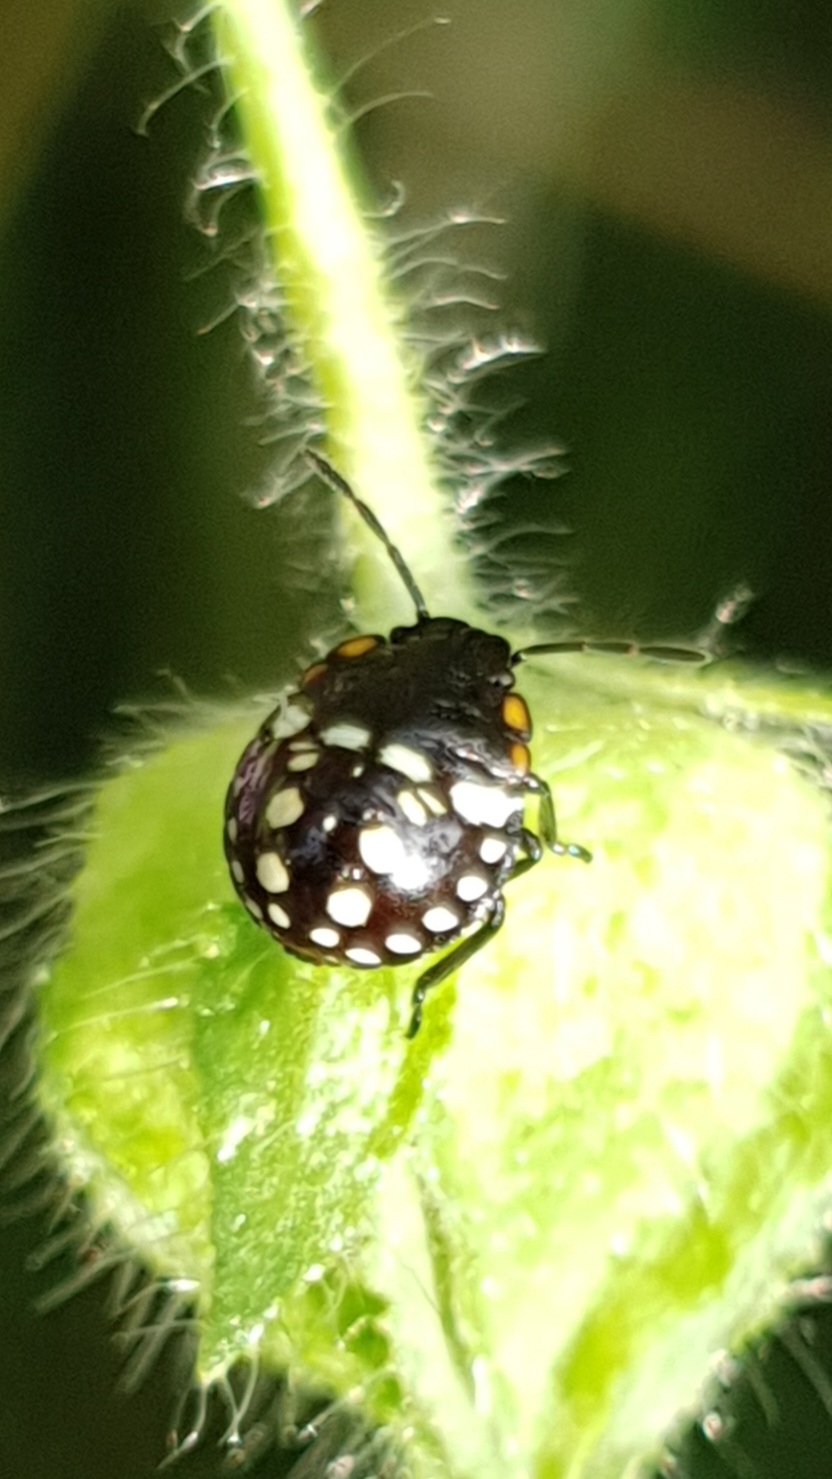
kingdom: Animalia
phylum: Arthropoda
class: Insecta
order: Hemiptera
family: Pentatomidae
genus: Nezara
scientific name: Nezara viridula
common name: Southern green stink bug
